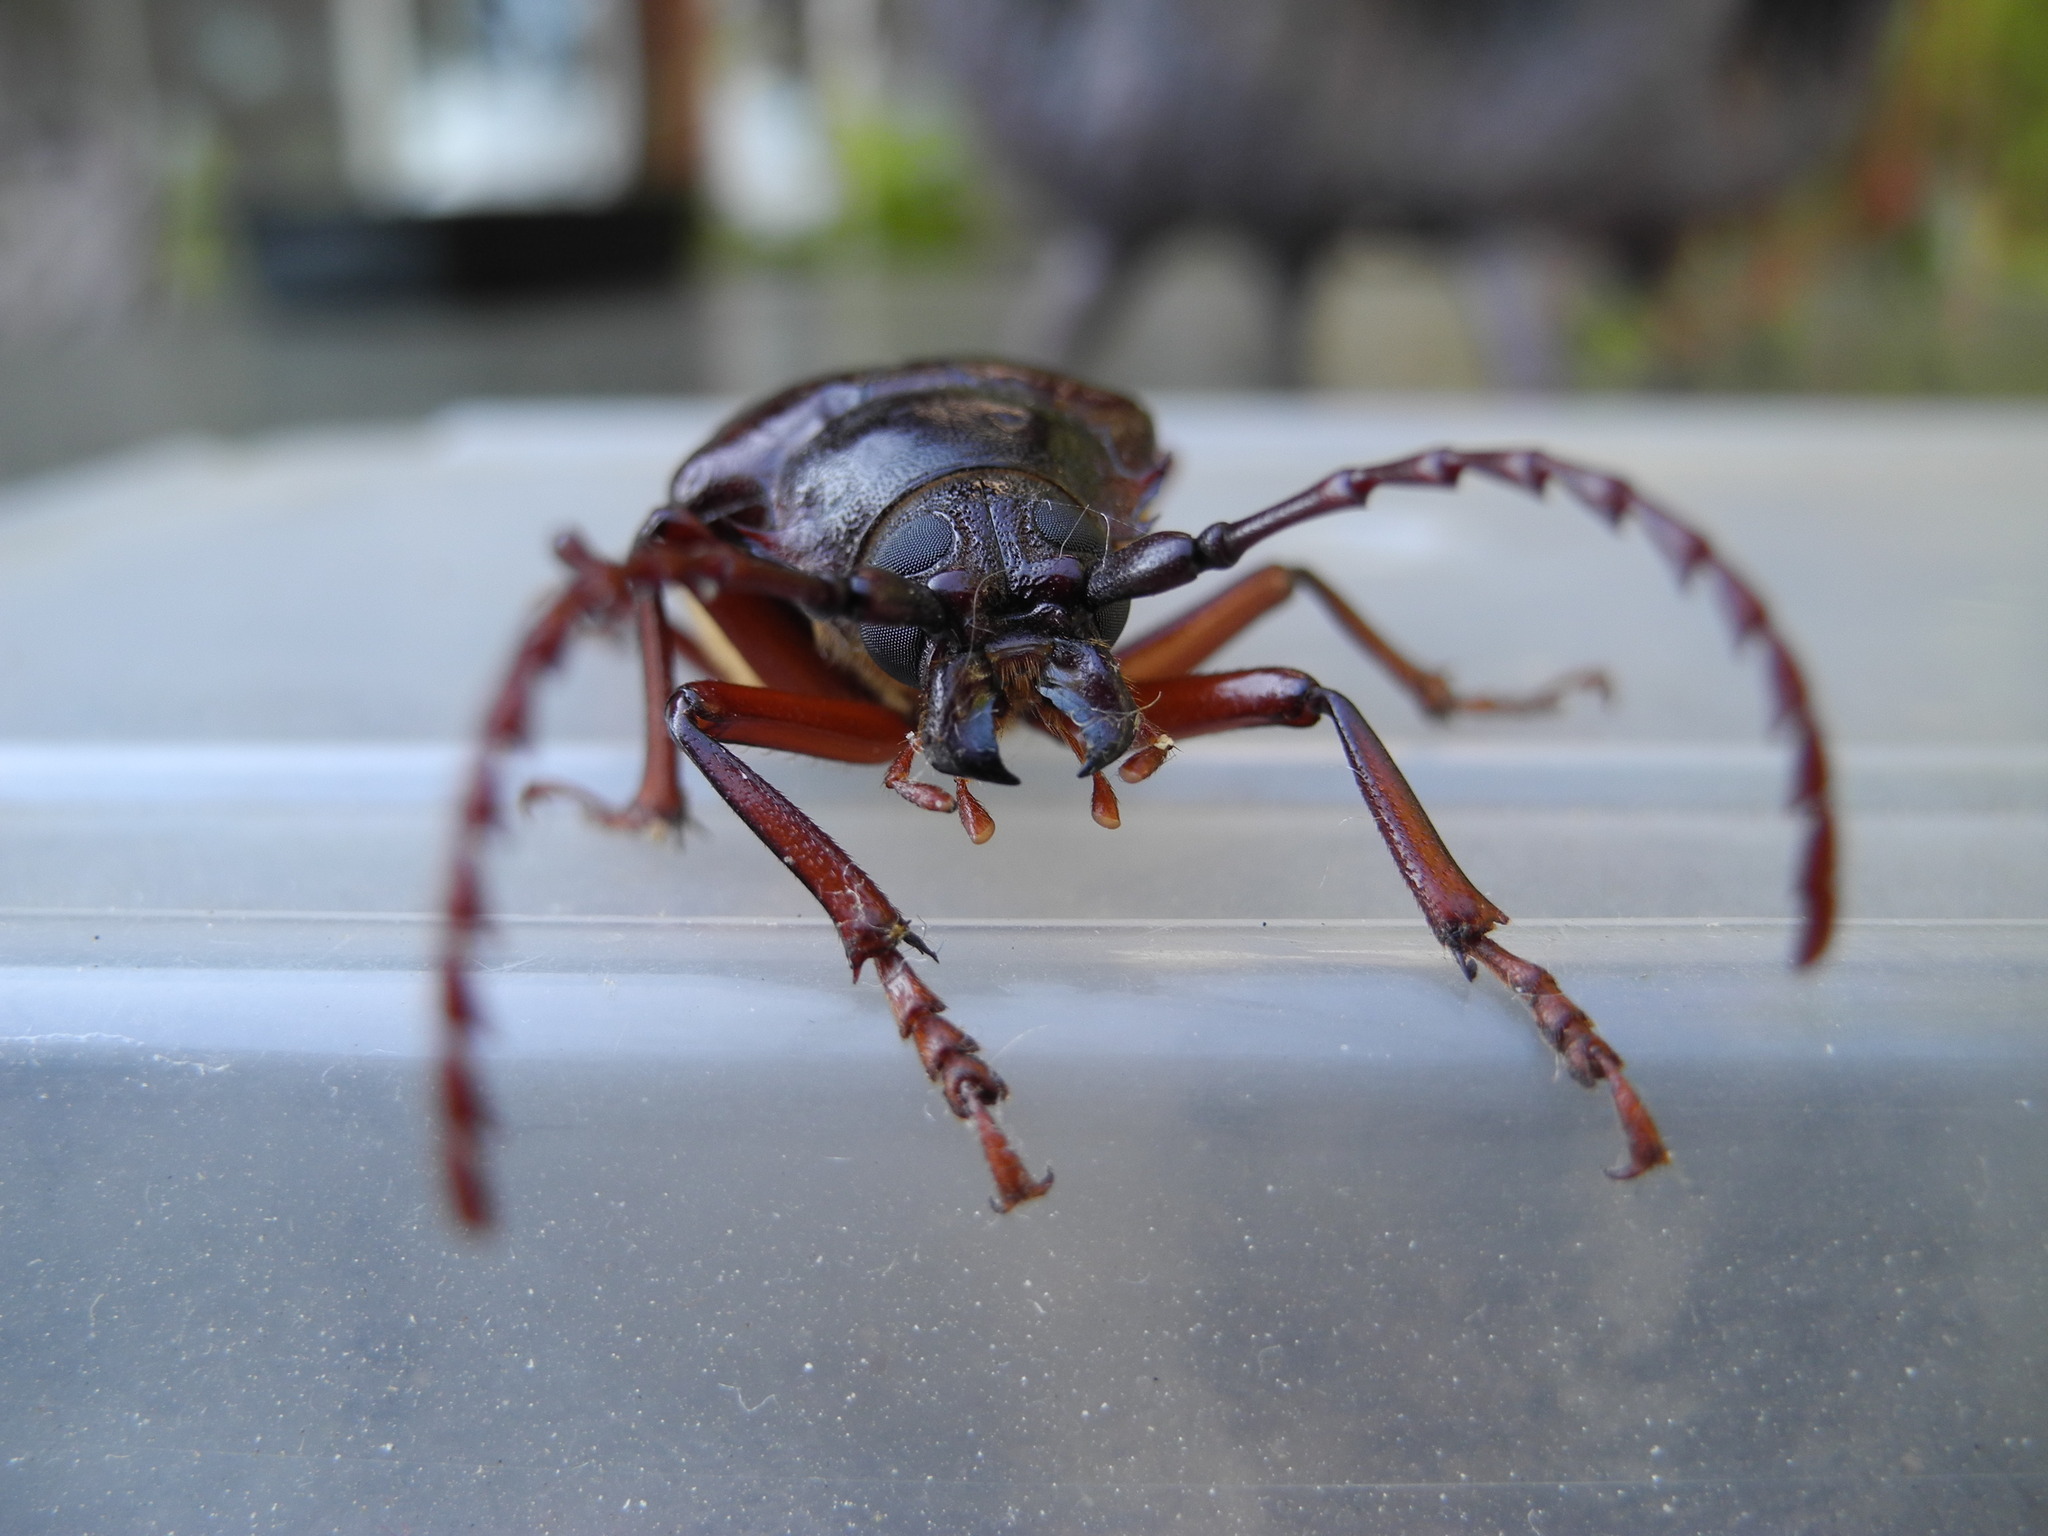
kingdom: Animalia
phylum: Arthropoda
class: Insecta
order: Coleoptera
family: Cerambycidae
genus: Prionus
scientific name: Prionus californicus
